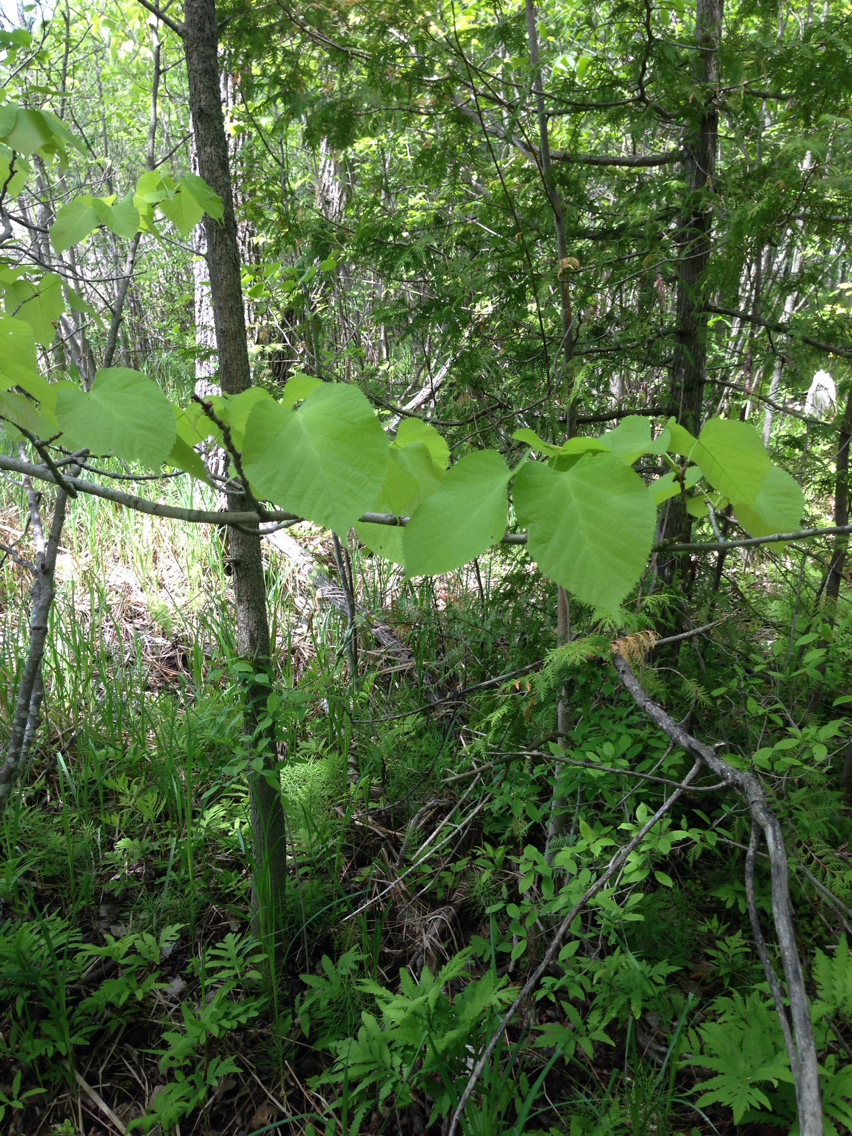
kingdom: Plantae
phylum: Tracheophyta
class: Magnoliopsida
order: Malvales
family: Malvaceae
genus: Tilia
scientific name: Tilia americana
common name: Basswood
